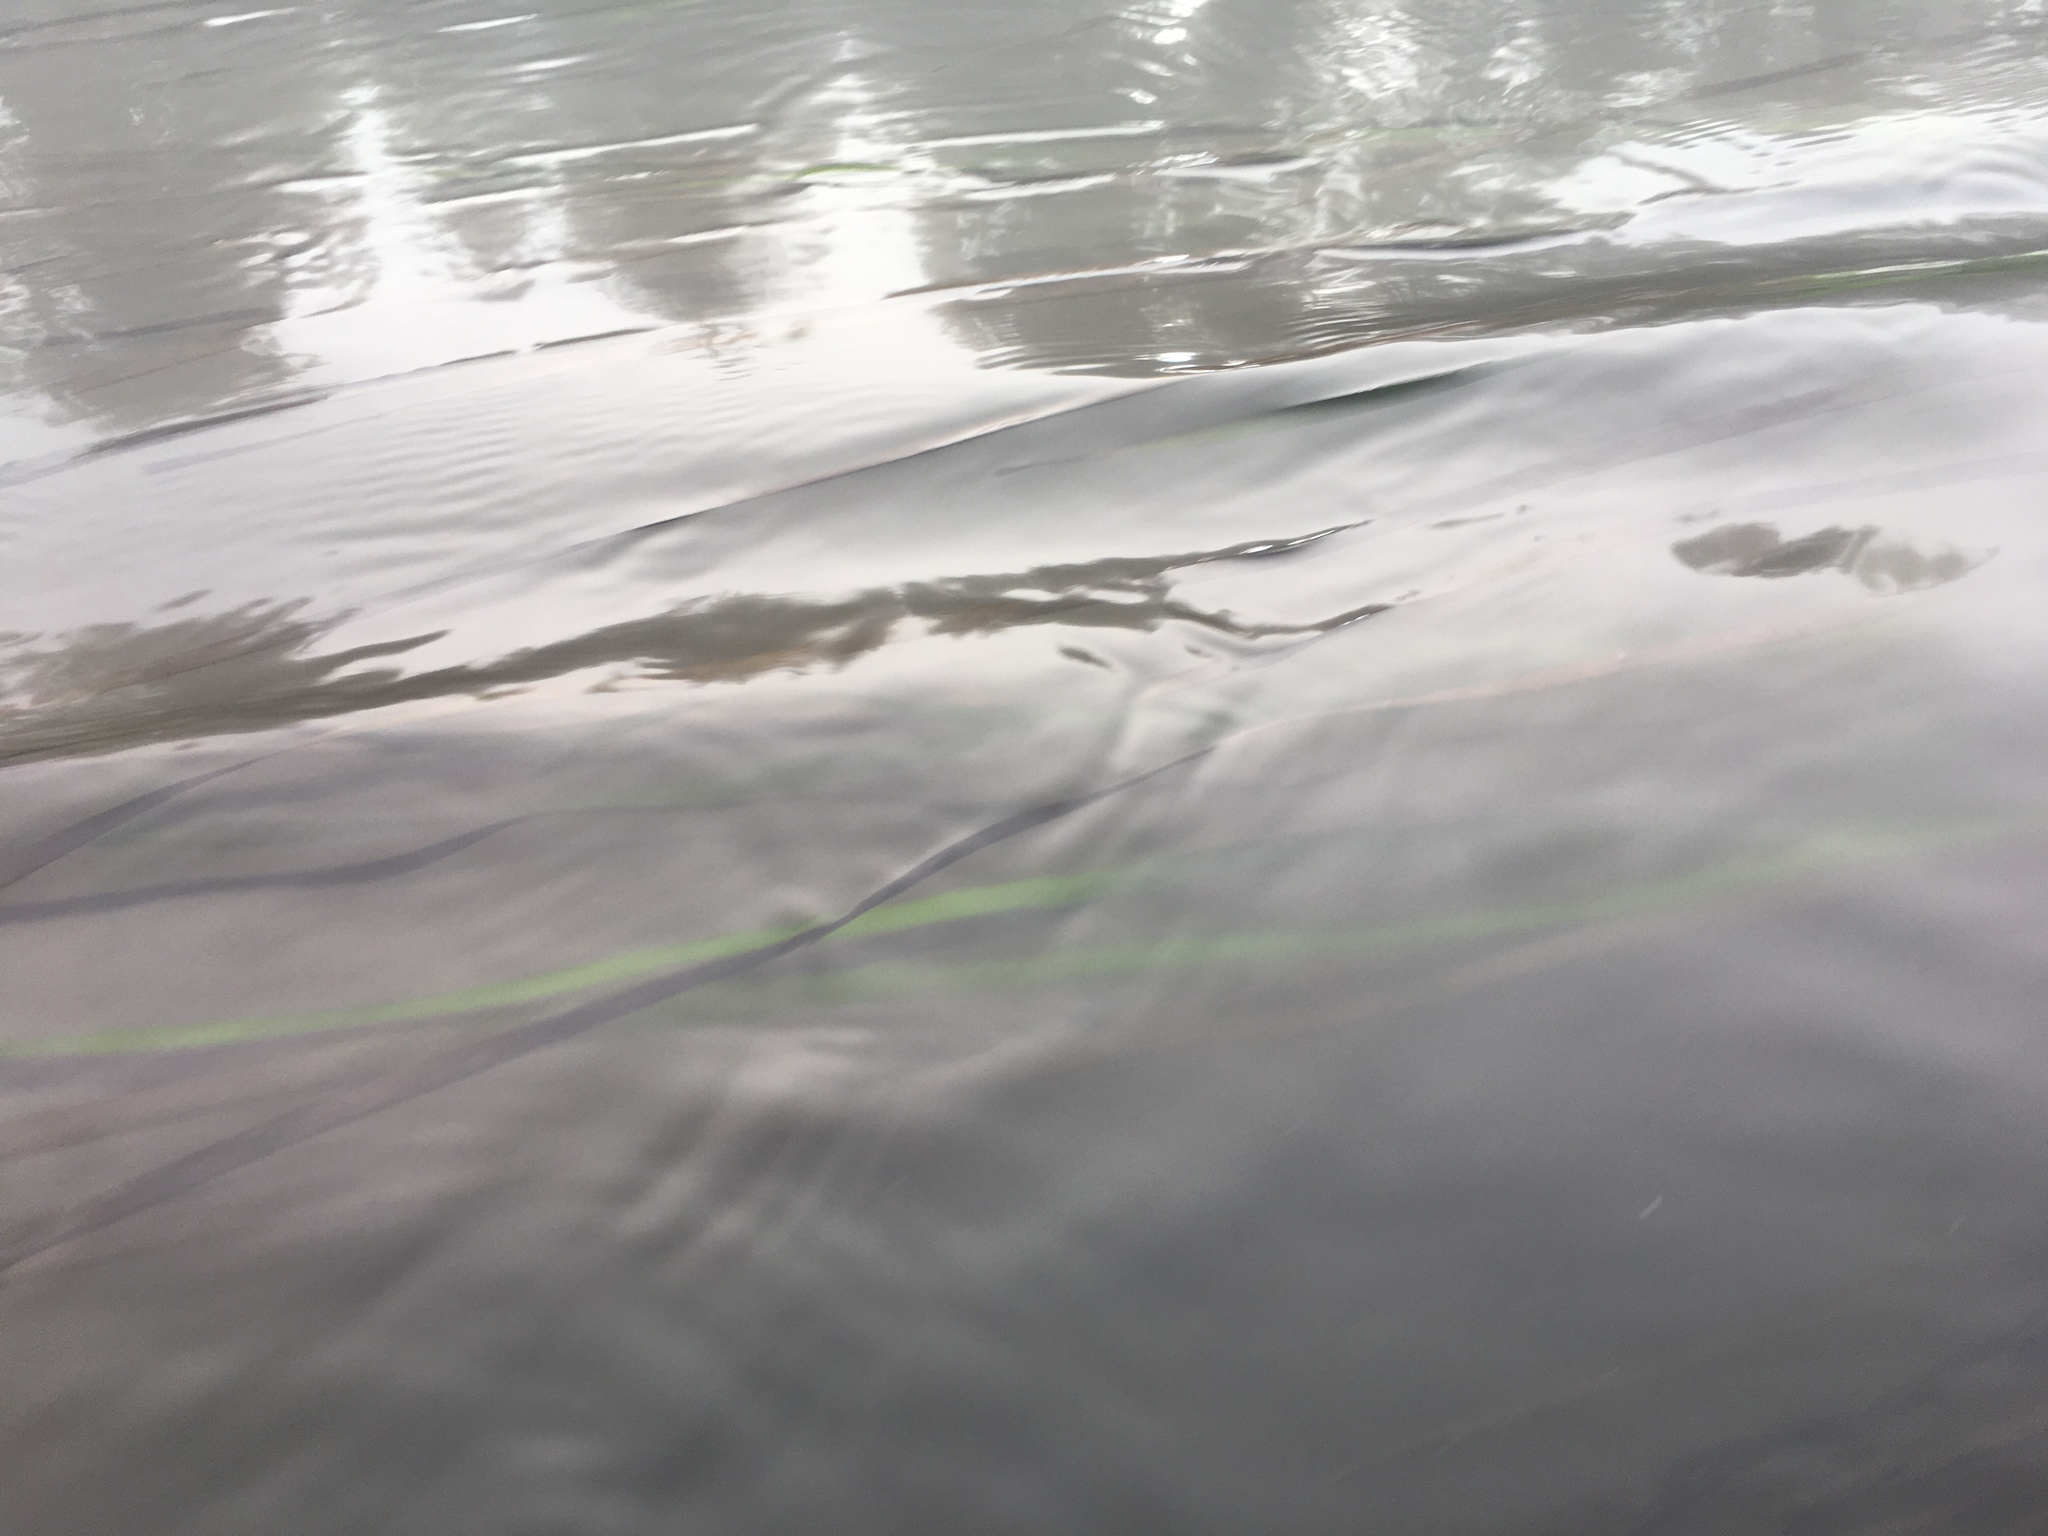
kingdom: Plantae
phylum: Tracheophyta
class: Liliopsida
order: Alismatales
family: Zosteraceae
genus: Zostera
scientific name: Zostera marina
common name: Eelgrass
